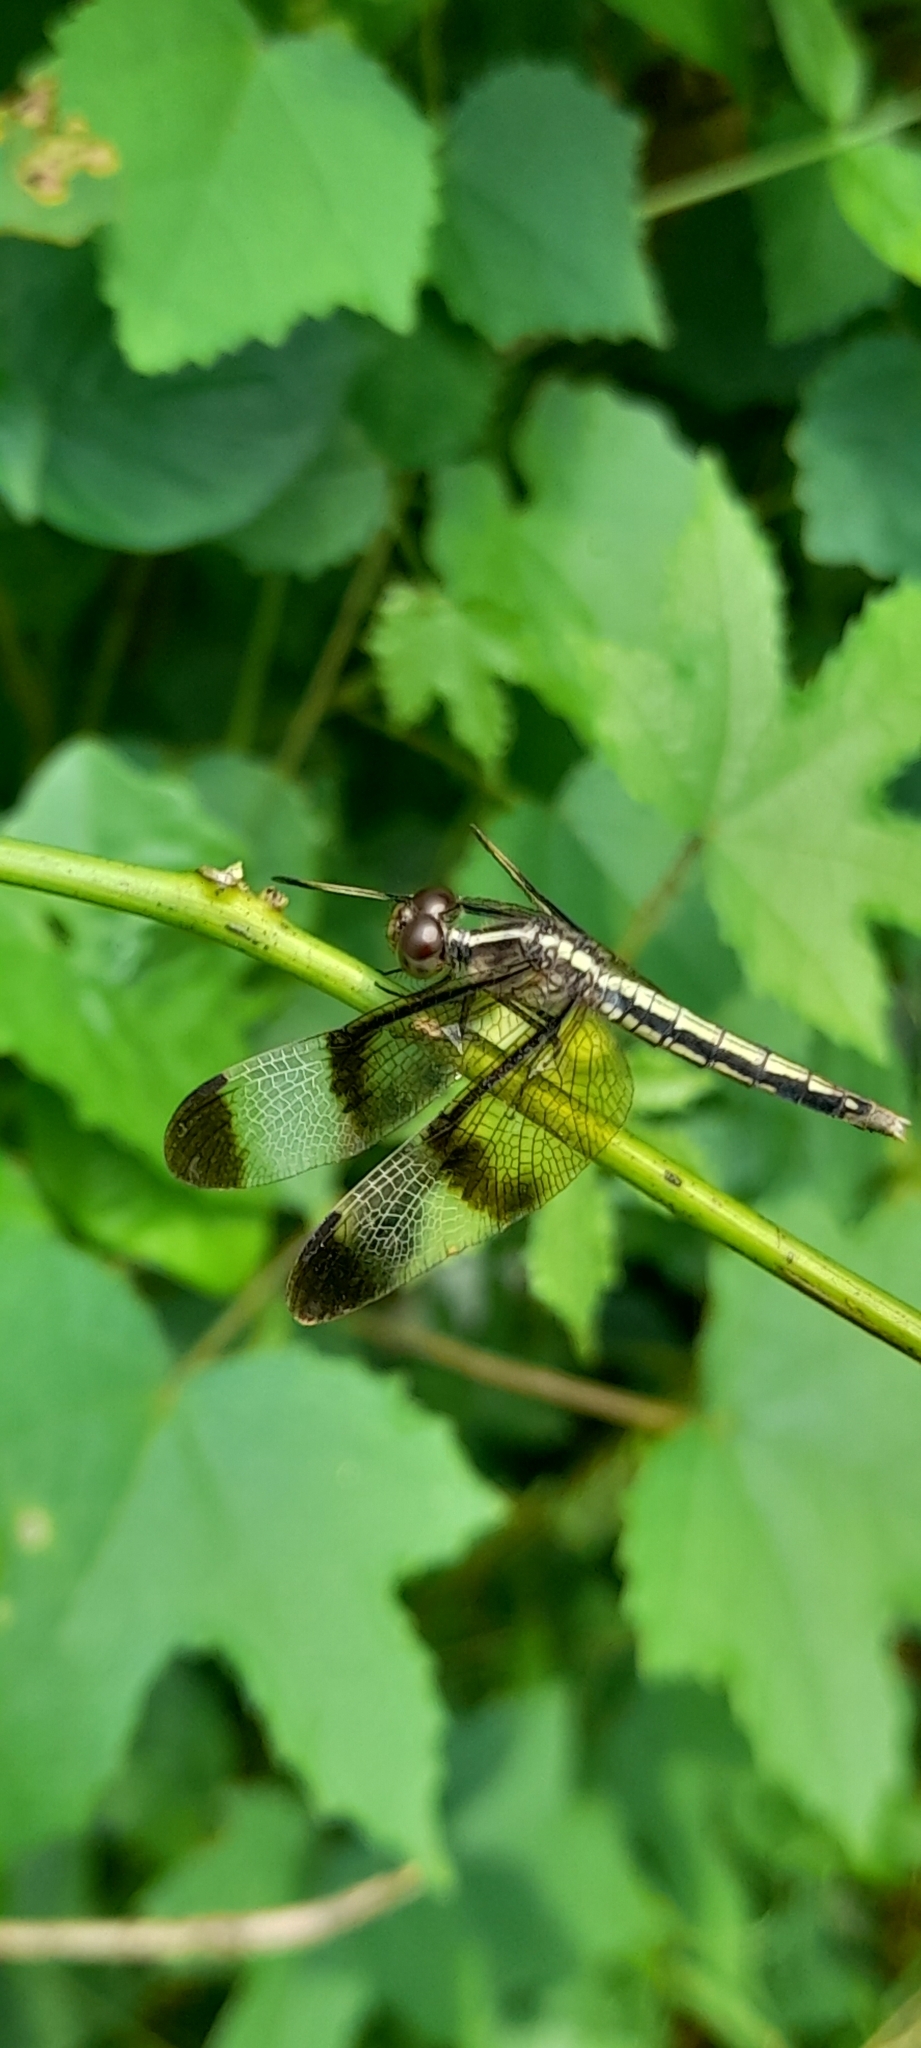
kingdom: Animalia
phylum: Arthropoda
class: Insecta
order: Odonata
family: Libellulidae
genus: Neurothemis
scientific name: Neurothemis tullia
